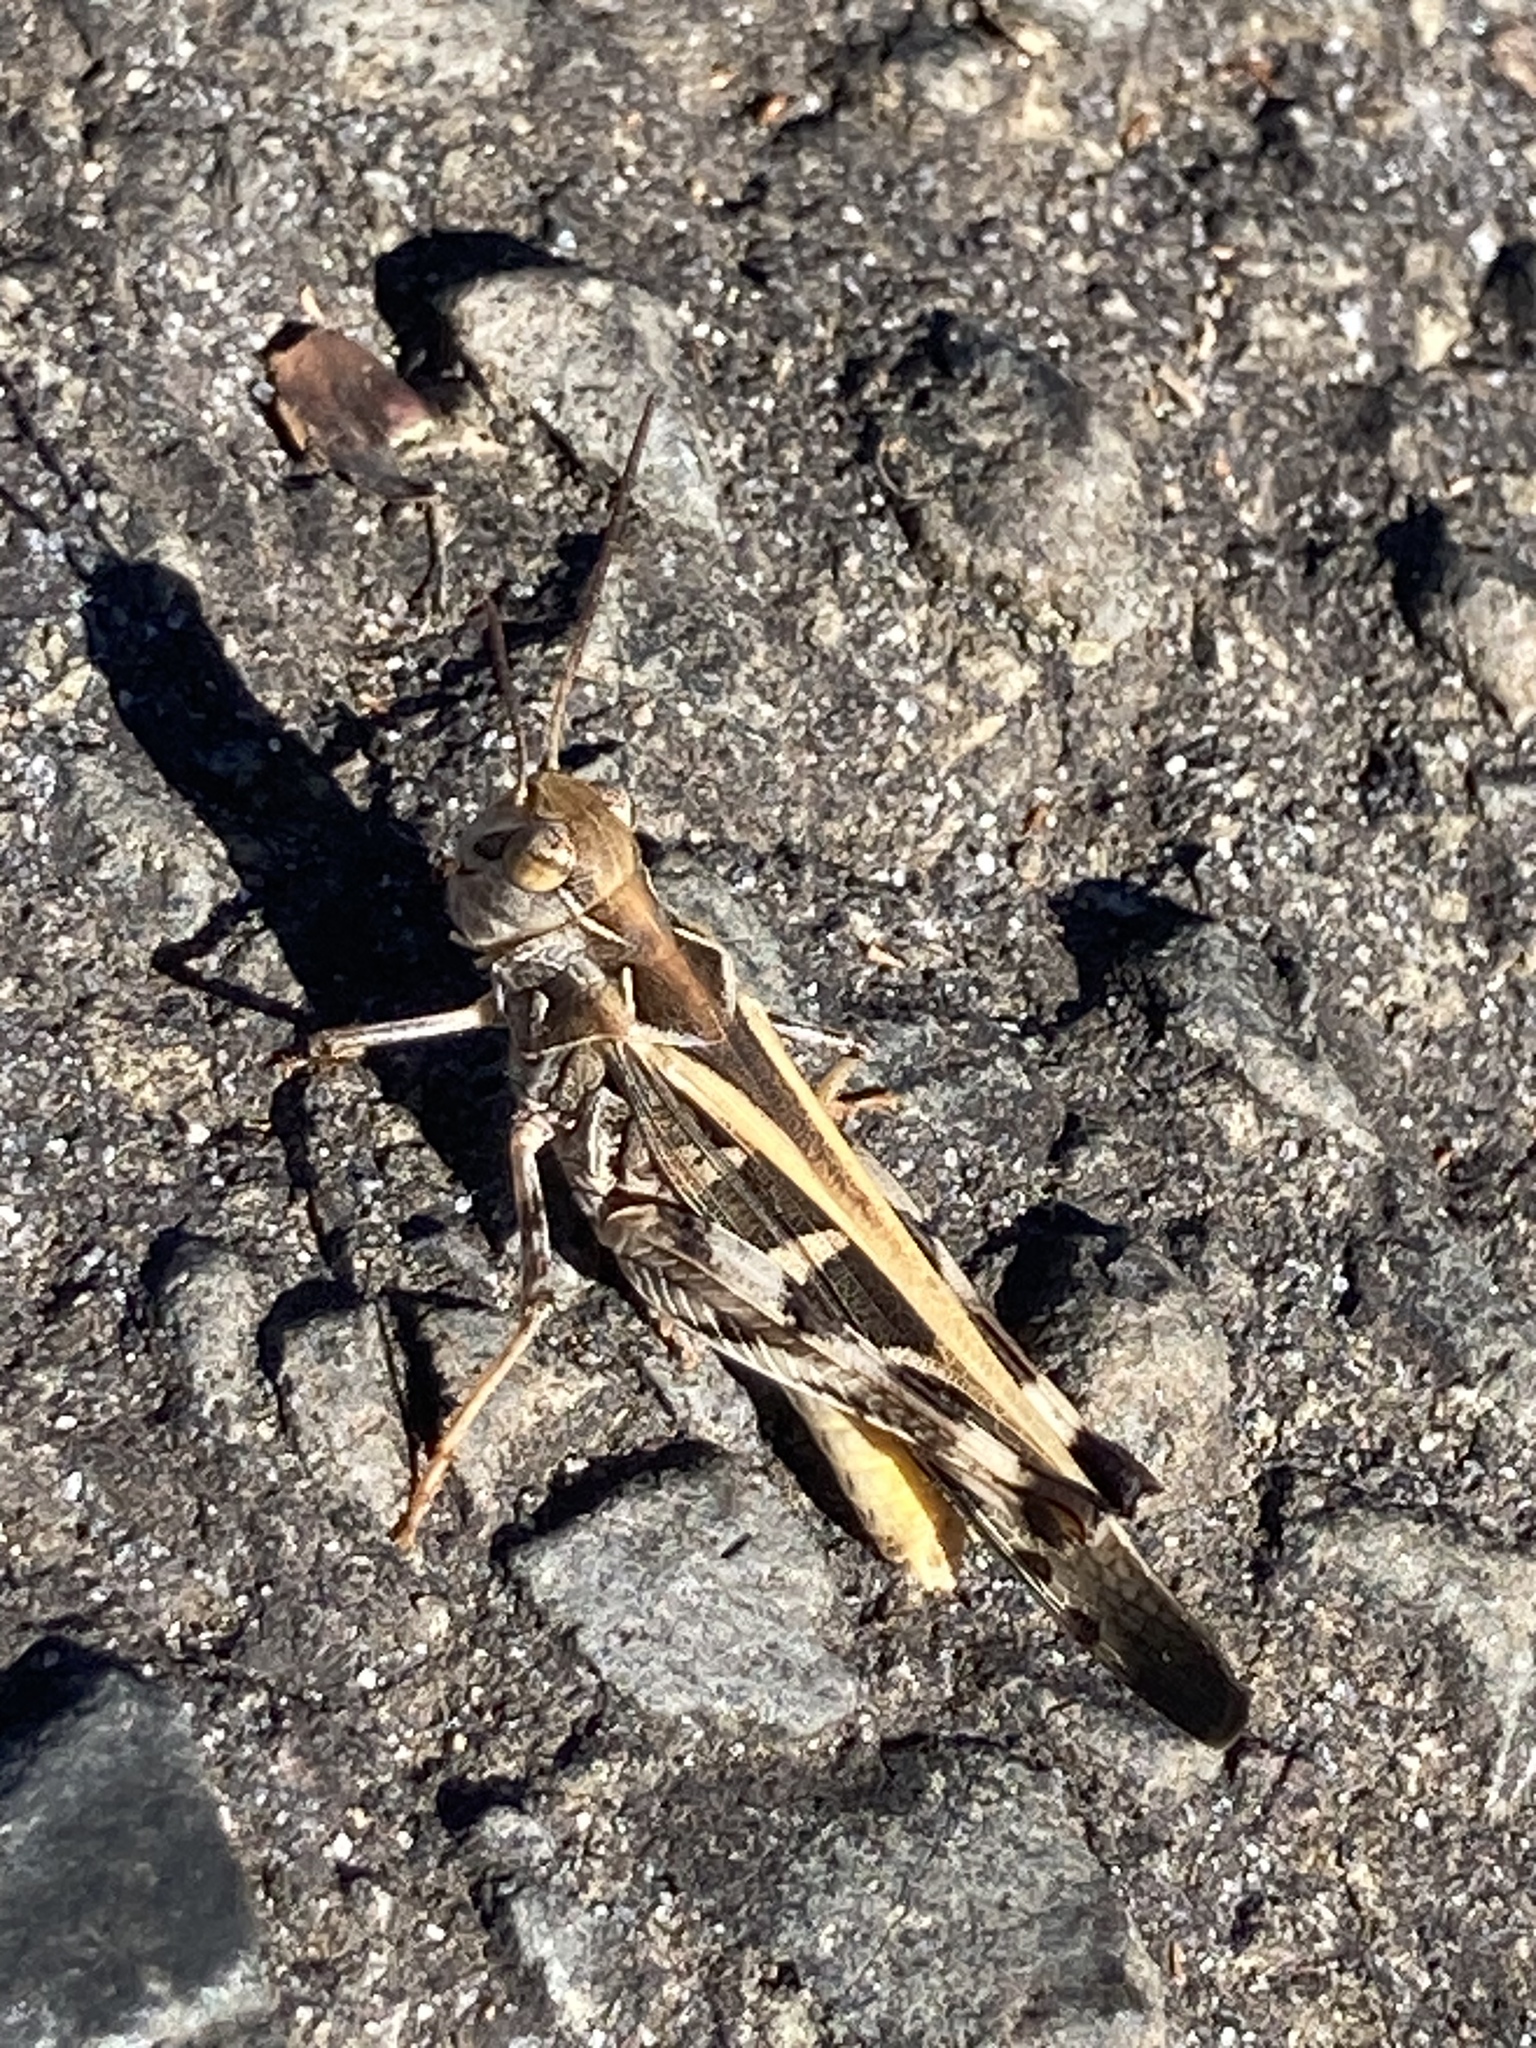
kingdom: Animalia
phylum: Arthropoda
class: Insecta
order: Orthoptera
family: Acrididae
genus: Oedaleus
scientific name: Oedaleus australis
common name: Eastern oedaleus
